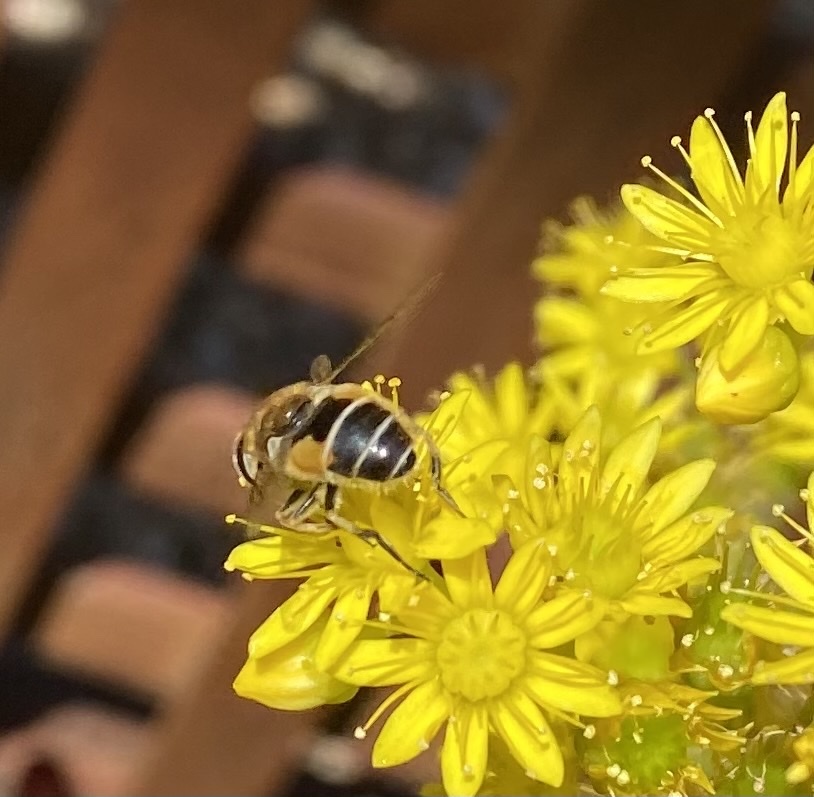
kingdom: Animalia
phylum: Arthropoda
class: Insecta
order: Diptera
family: Syrphidae
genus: Eristalis
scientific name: Eristalis arbustorum
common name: Hover fly
